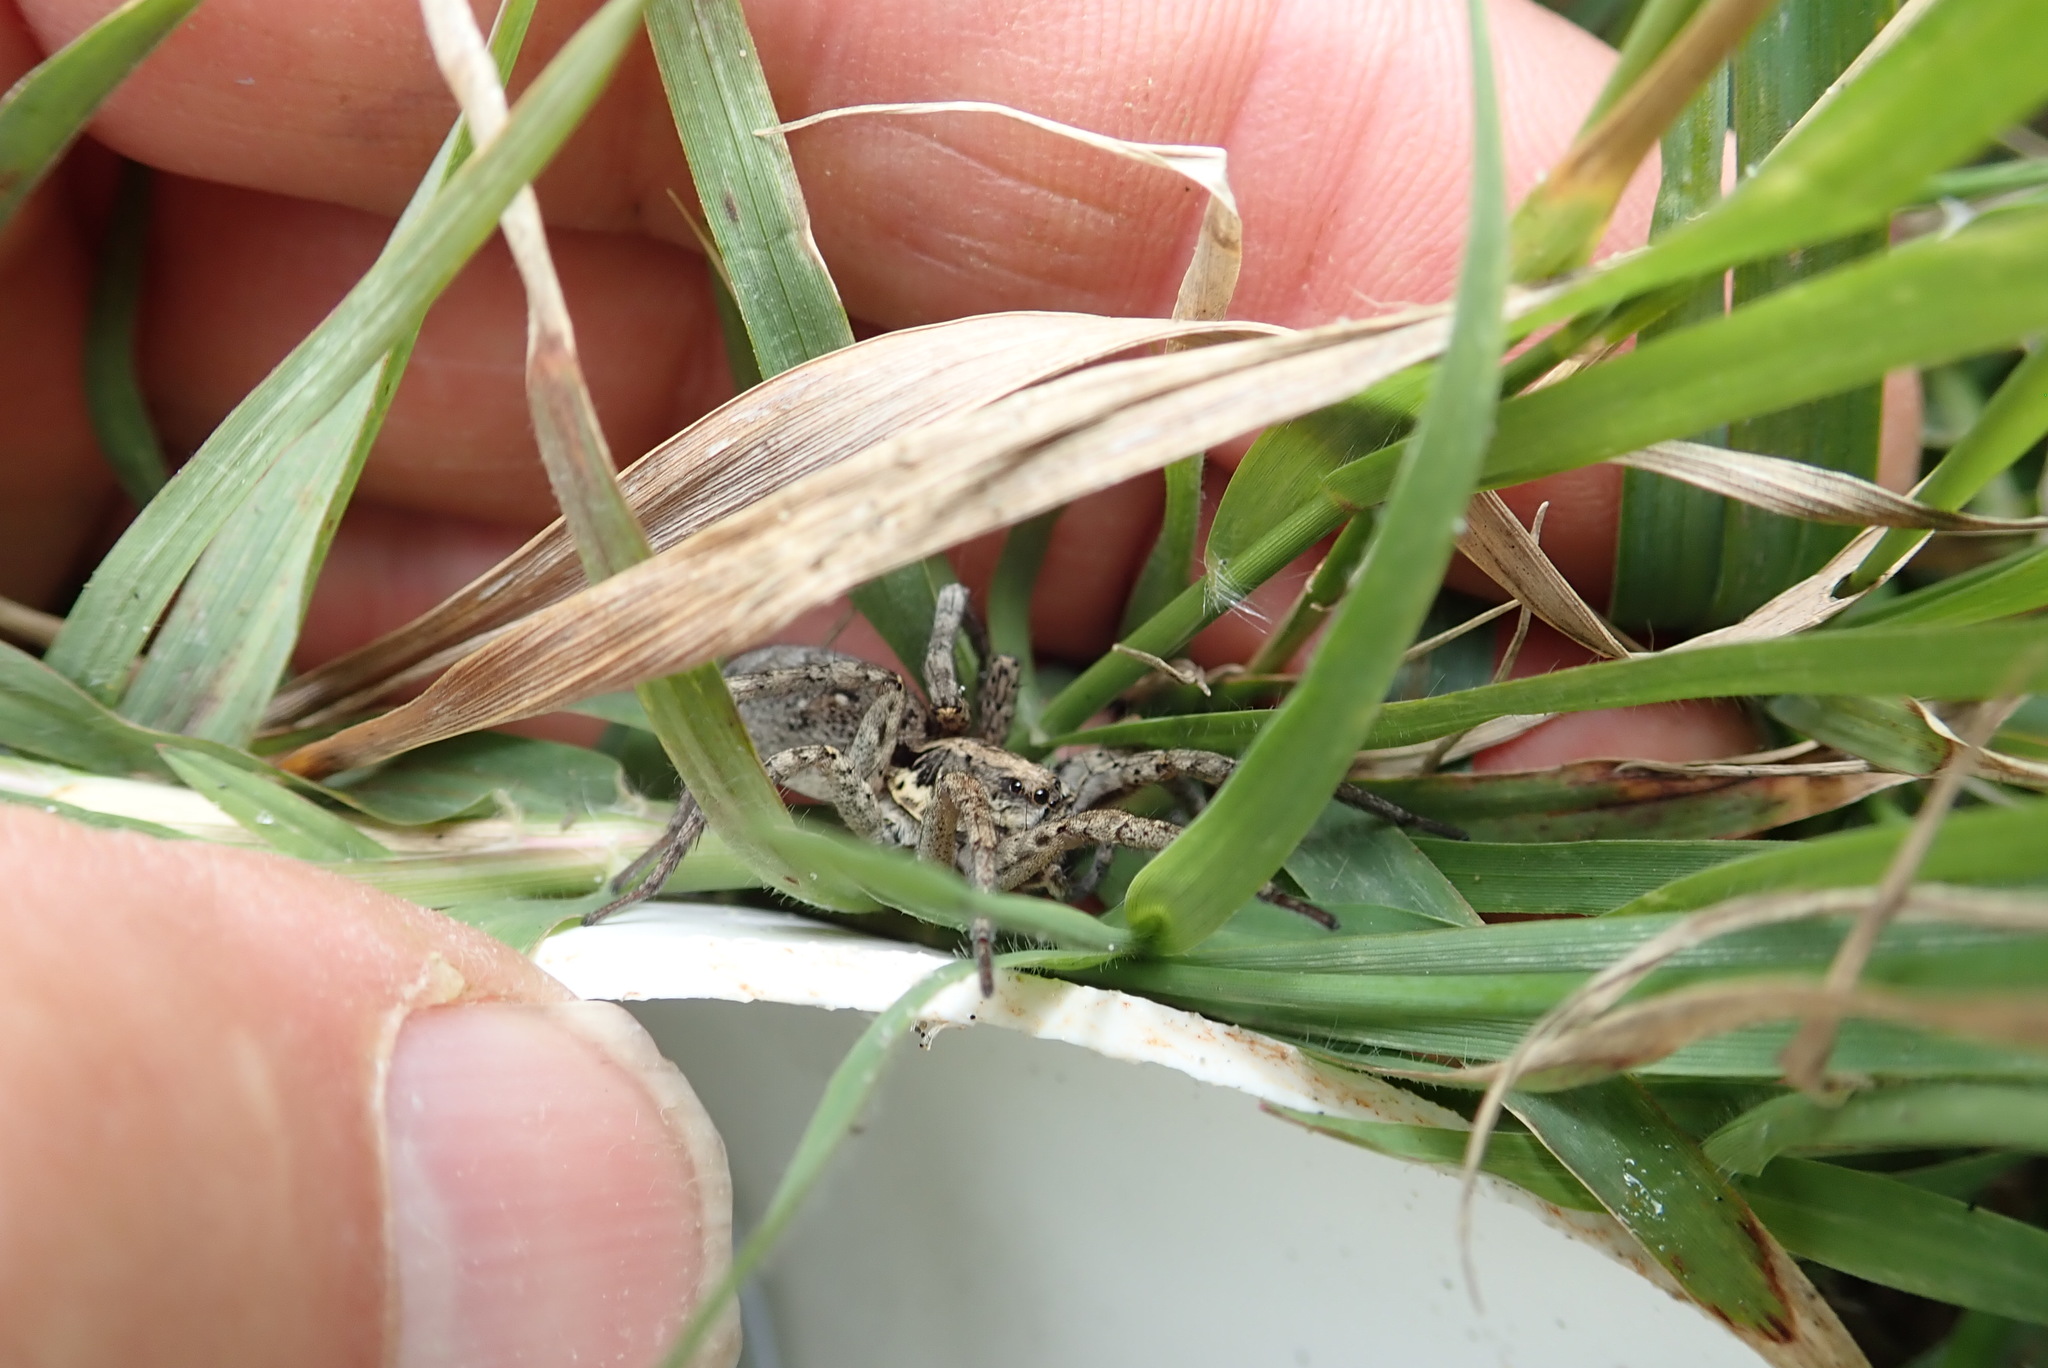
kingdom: Animalia
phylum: Arthropoda
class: Arachnida
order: Araneae
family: Lycosidae
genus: Hogna
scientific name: Hogna crispipes
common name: Wolf spider
